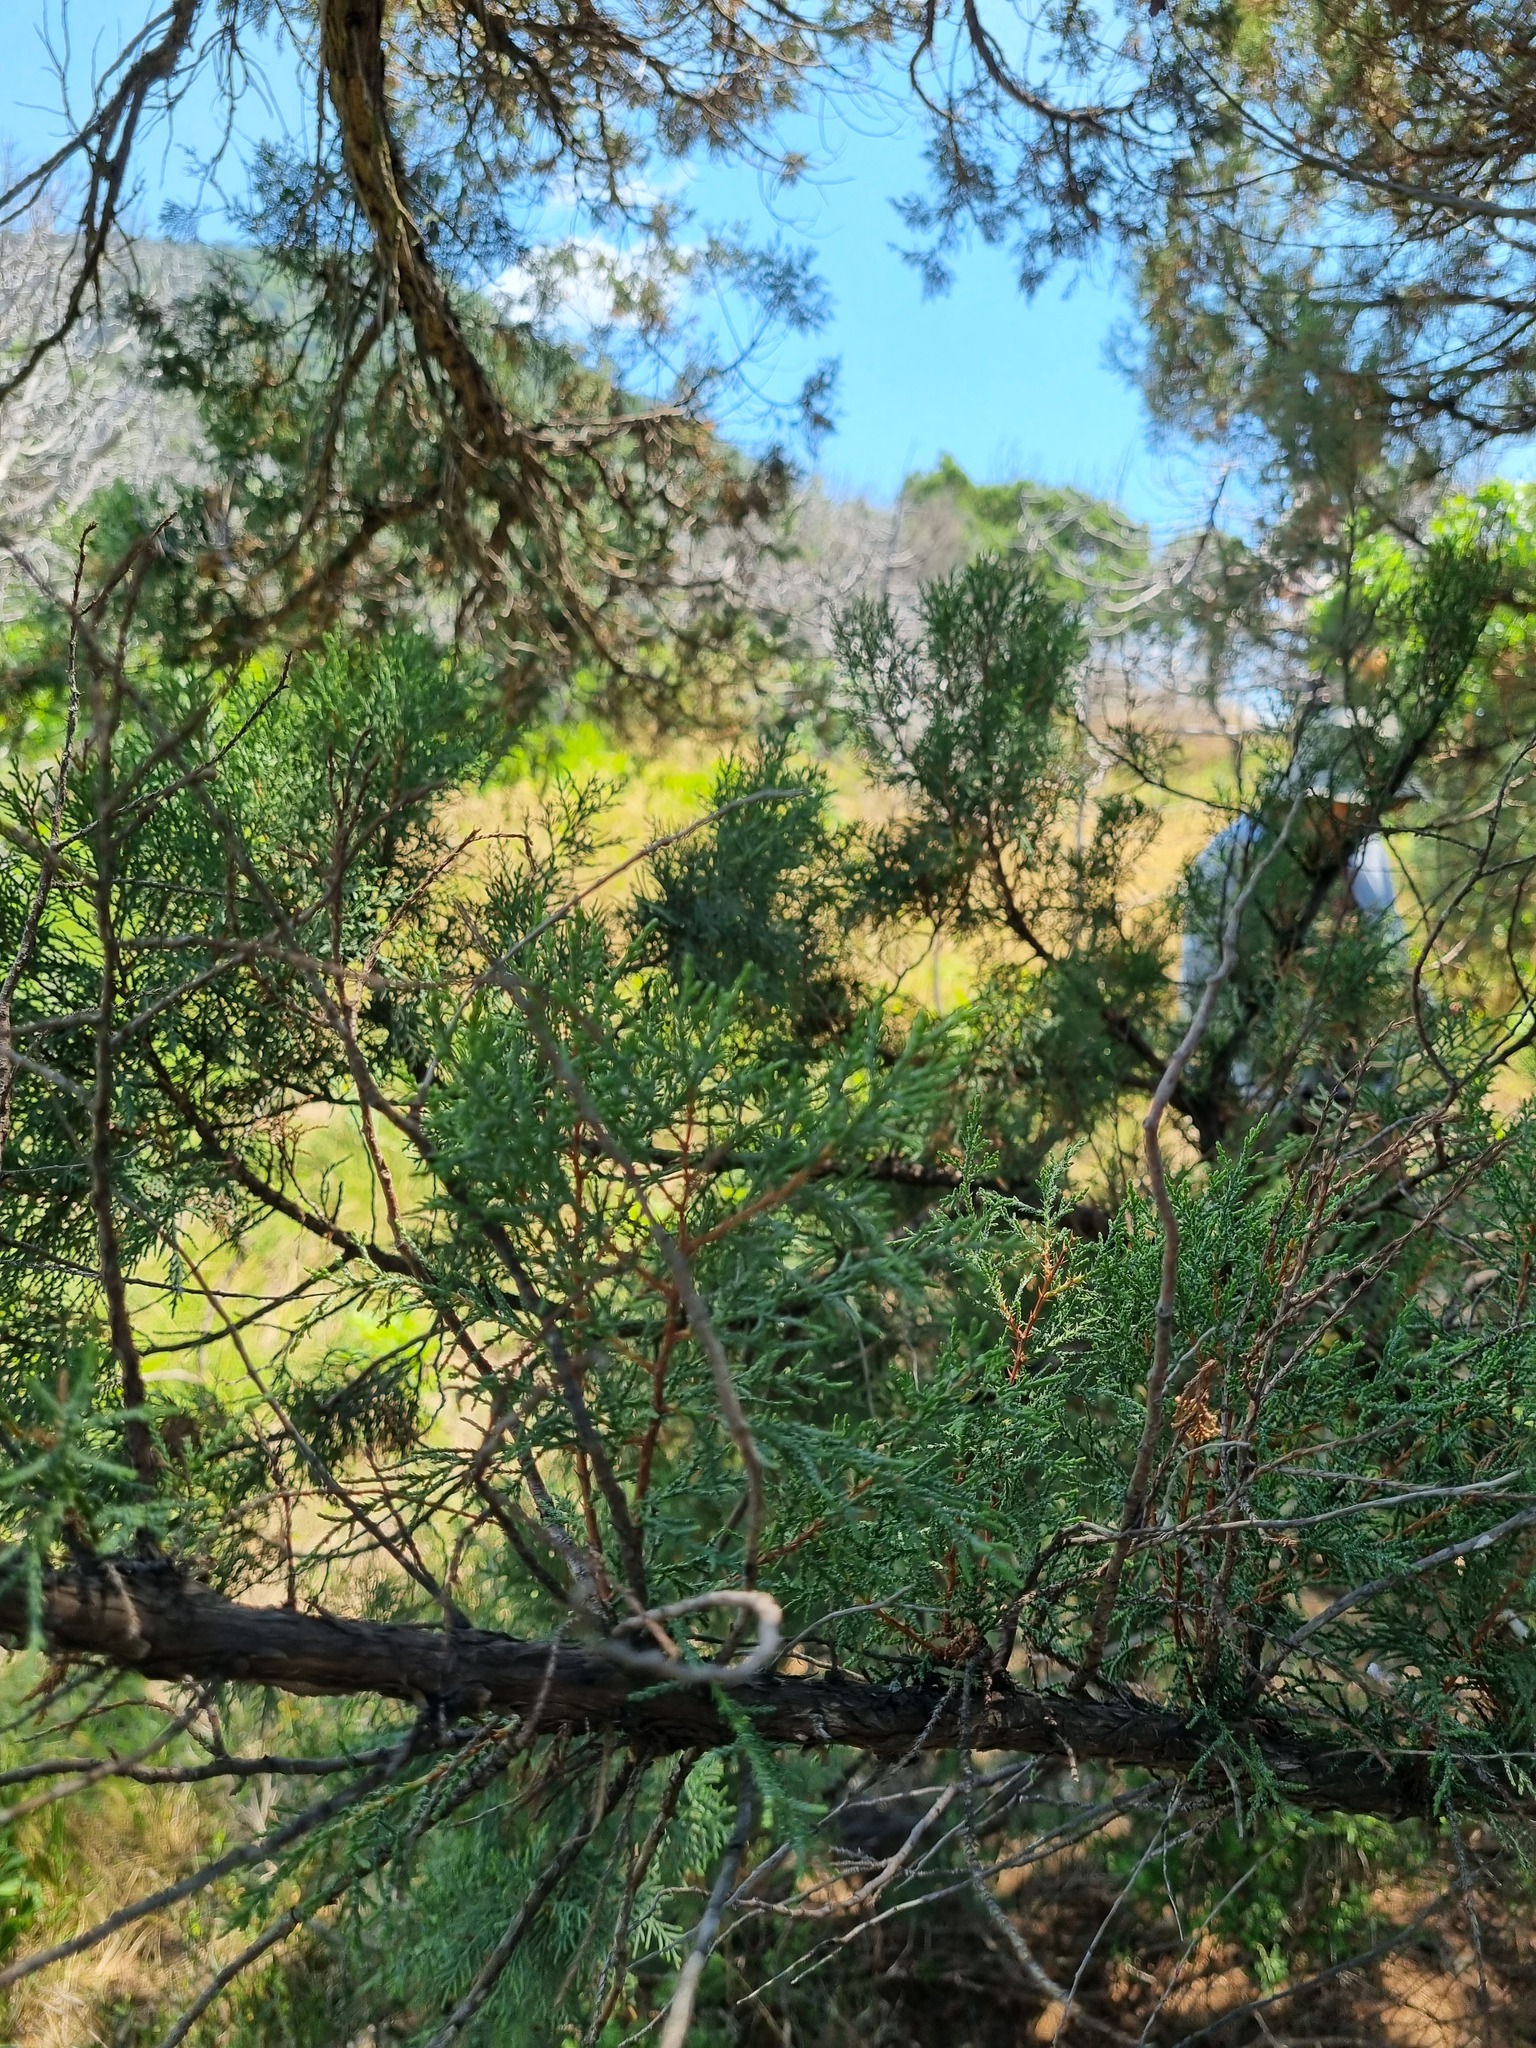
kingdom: Plantae
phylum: Tracheophyta
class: Pinopsida
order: Pinales
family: Cupressaceae
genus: Juniperus
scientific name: Juniperus excelsa
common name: Crimean juniper
